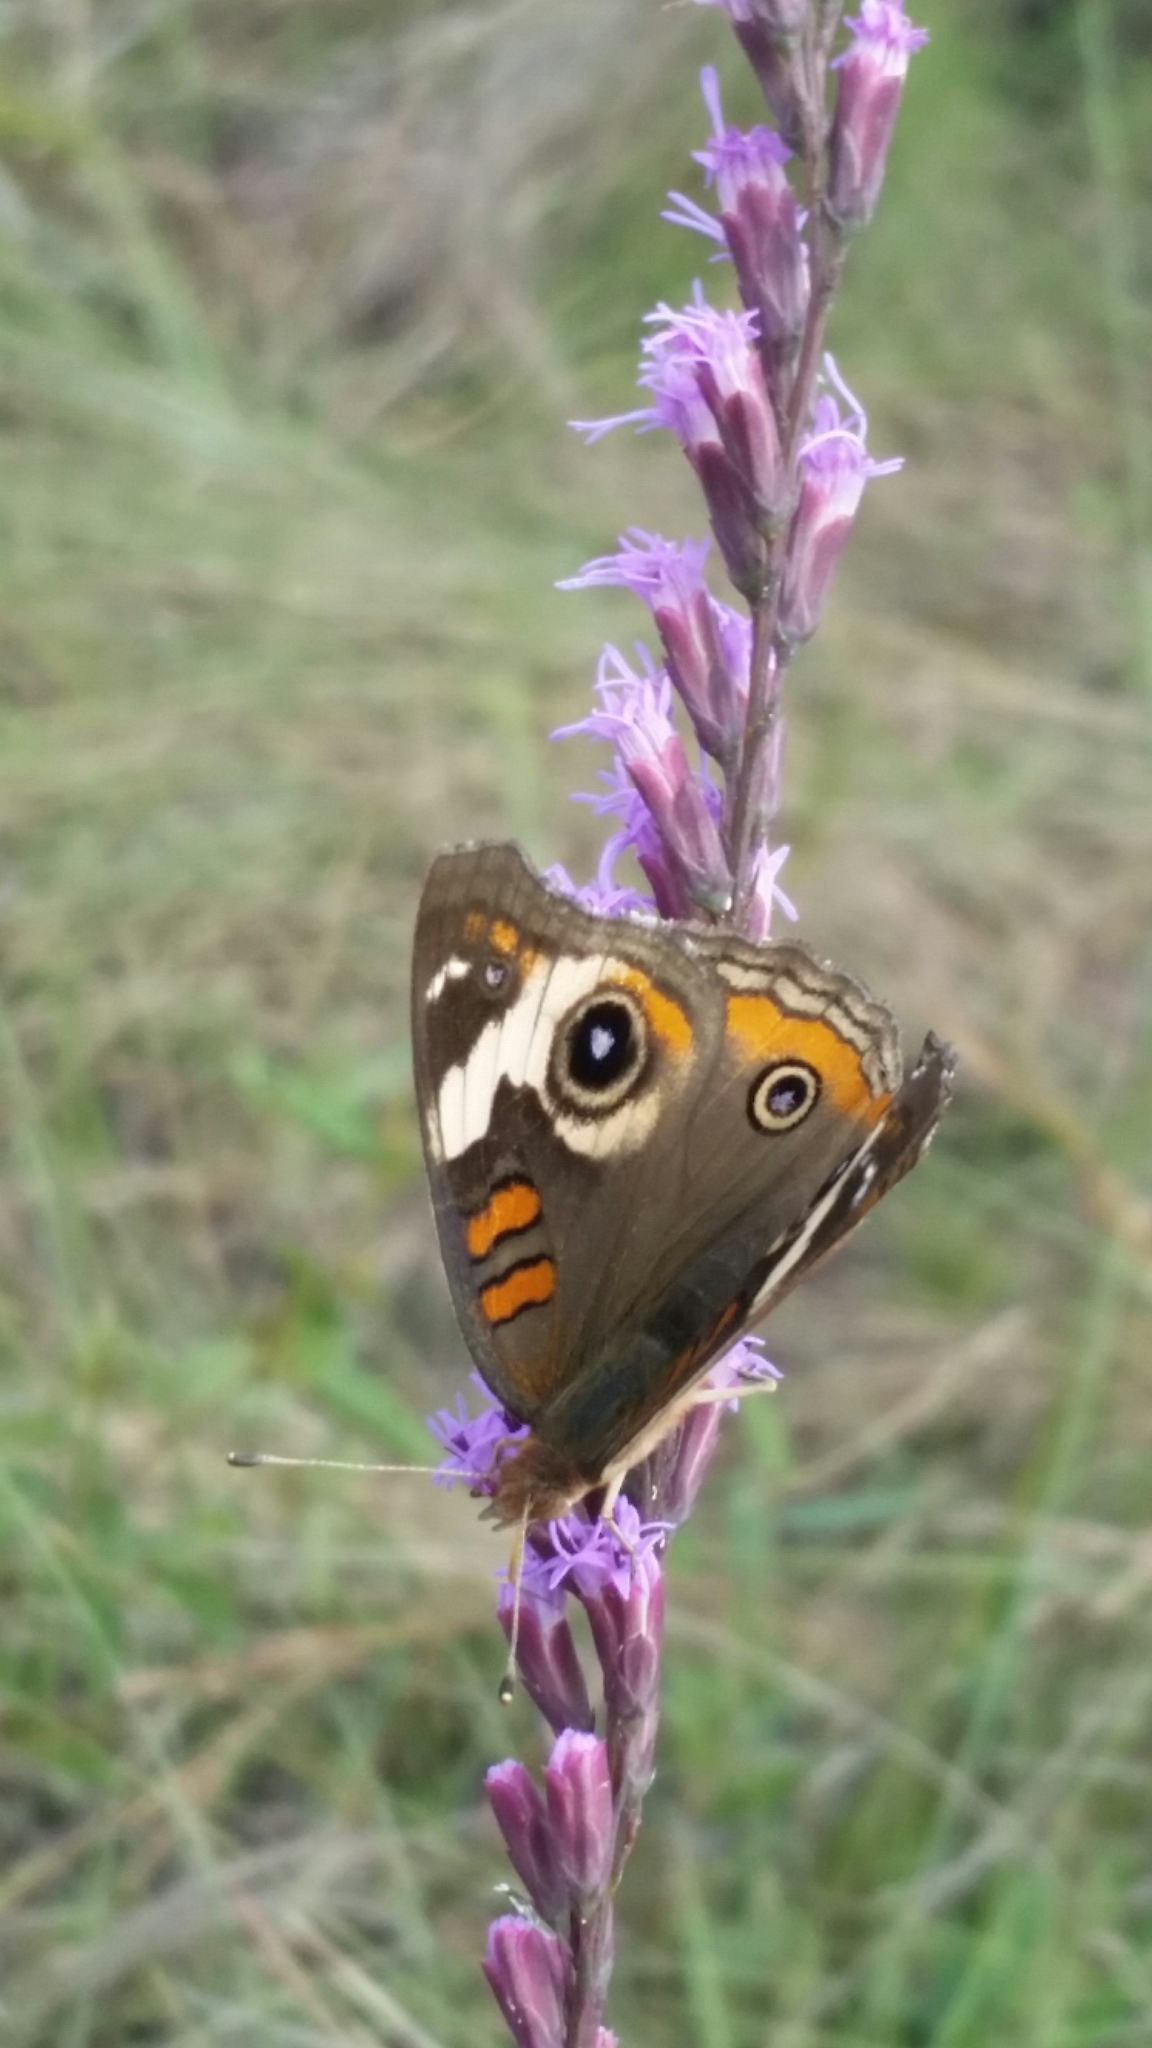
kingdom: Animalia
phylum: Arthropoda
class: Insecta
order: Lepidoptera
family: Nymphalidae
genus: Junonia
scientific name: Junonia coenia
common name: Common buckeye
